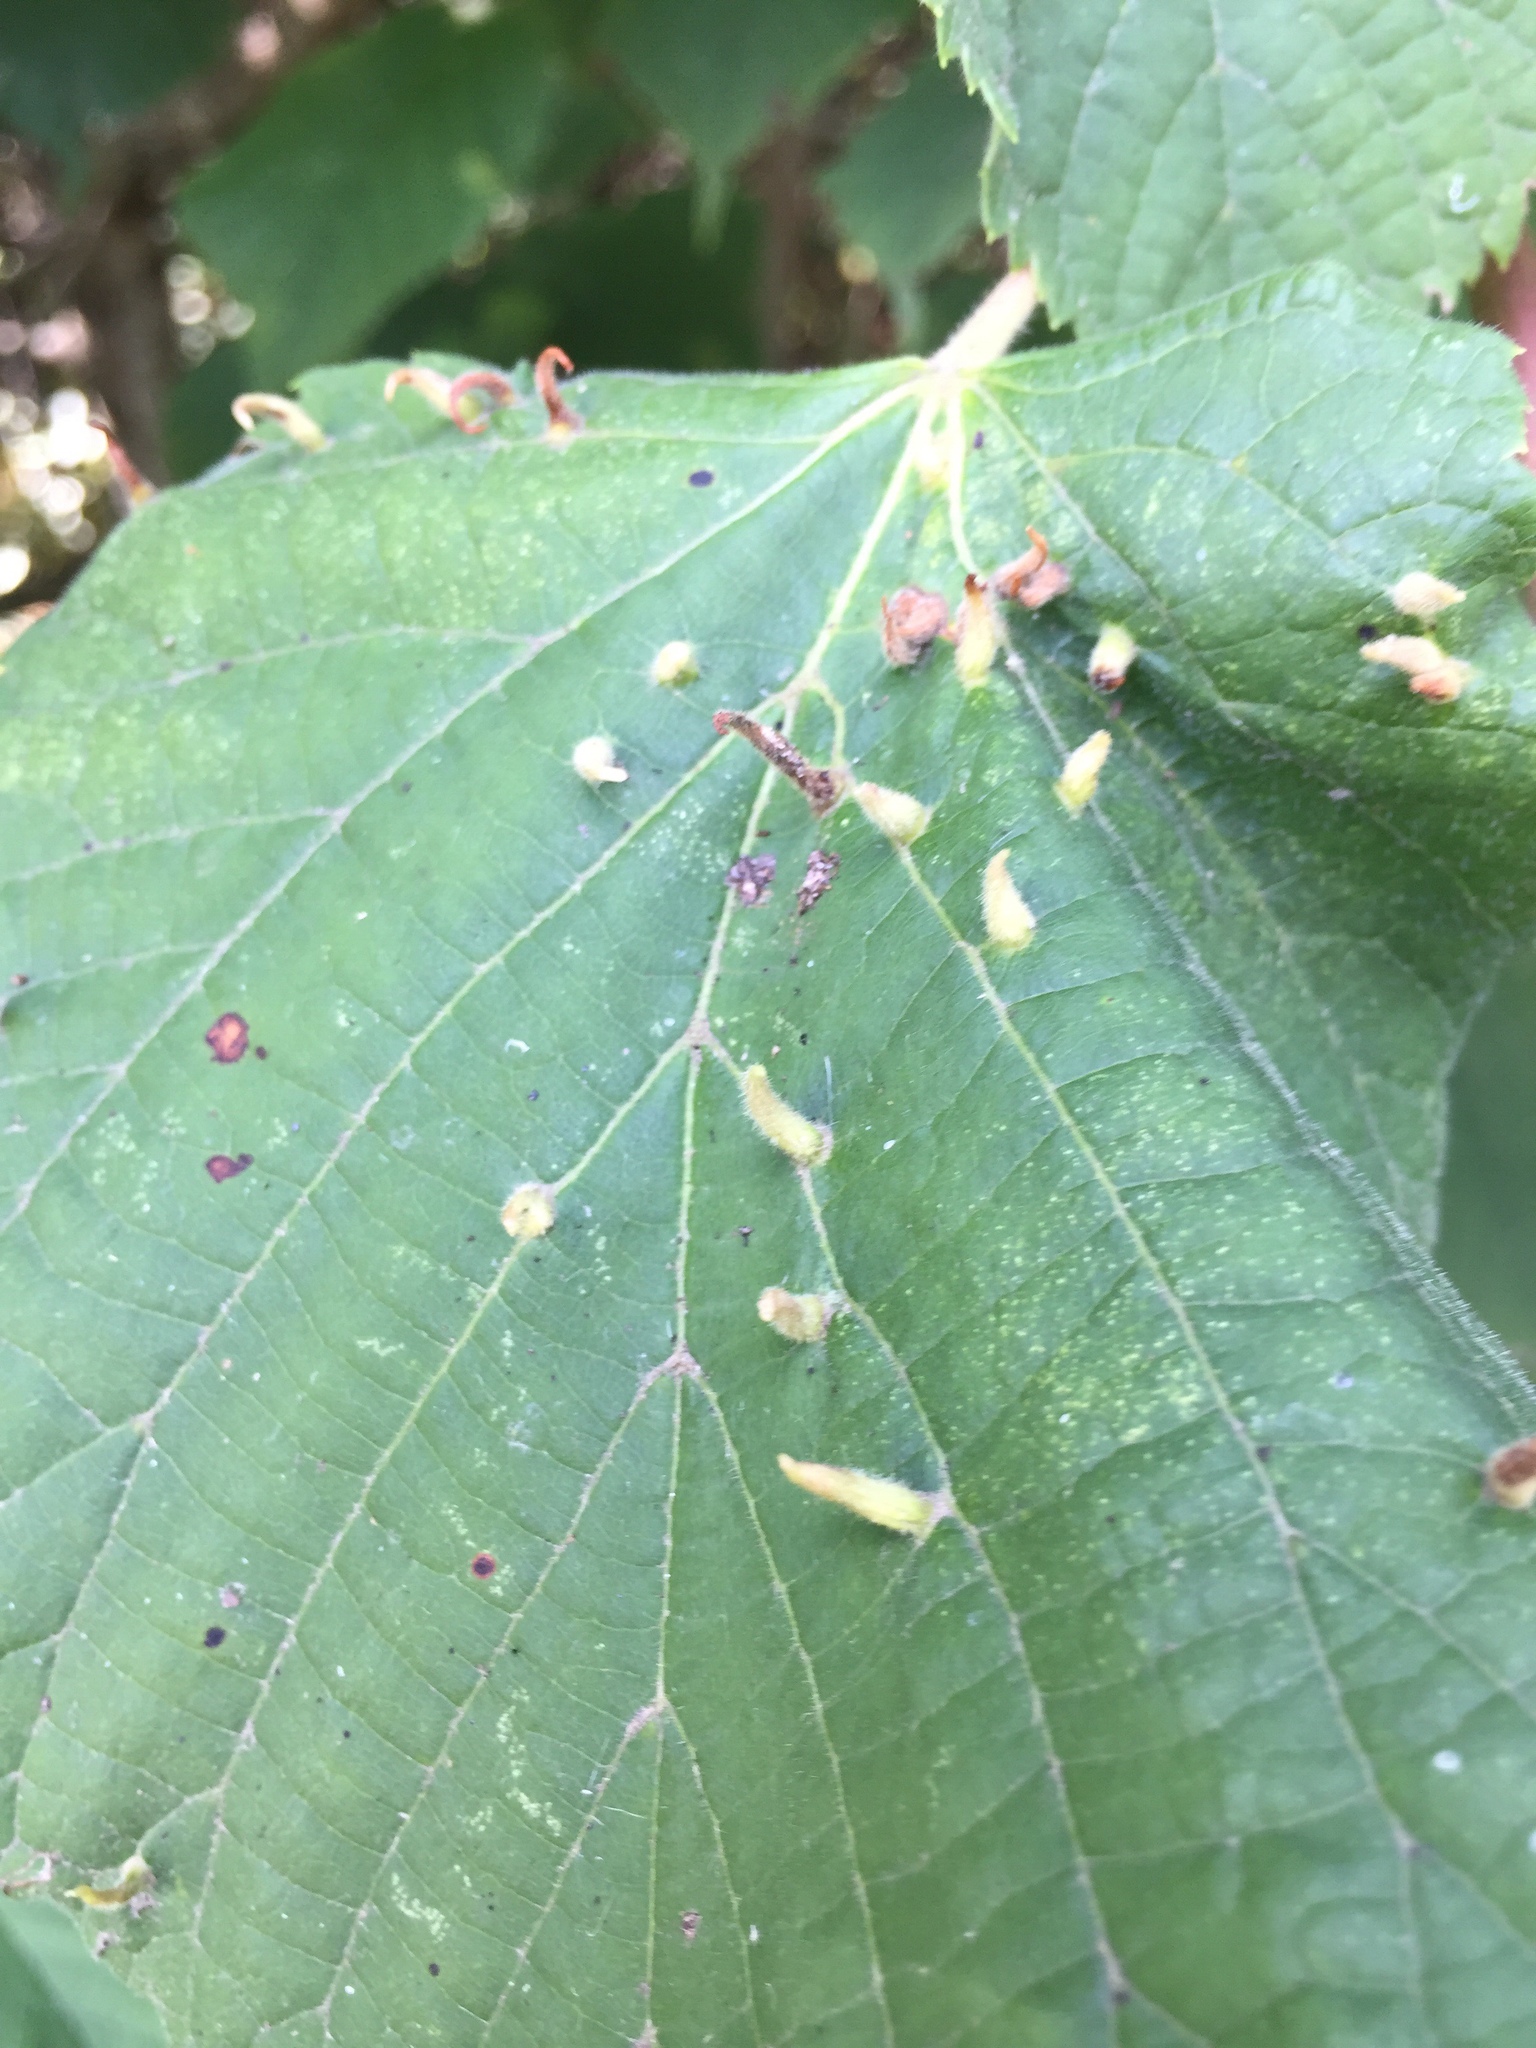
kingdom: Animalia
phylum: Arthropoda
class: Arachnida
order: Trombidiformes
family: Eriophyidae
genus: Eriophyes
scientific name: Eriophyes tiliae
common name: Red nail gall mite
